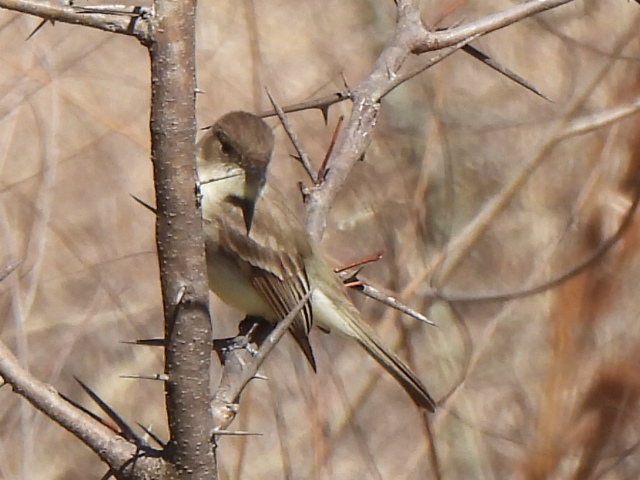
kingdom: Animalia
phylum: Chordata
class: Aves
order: Passeriformes
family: Tyrannidae
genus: Sayornis
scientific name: Sayornis phoebe
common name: Eastern phoebe
